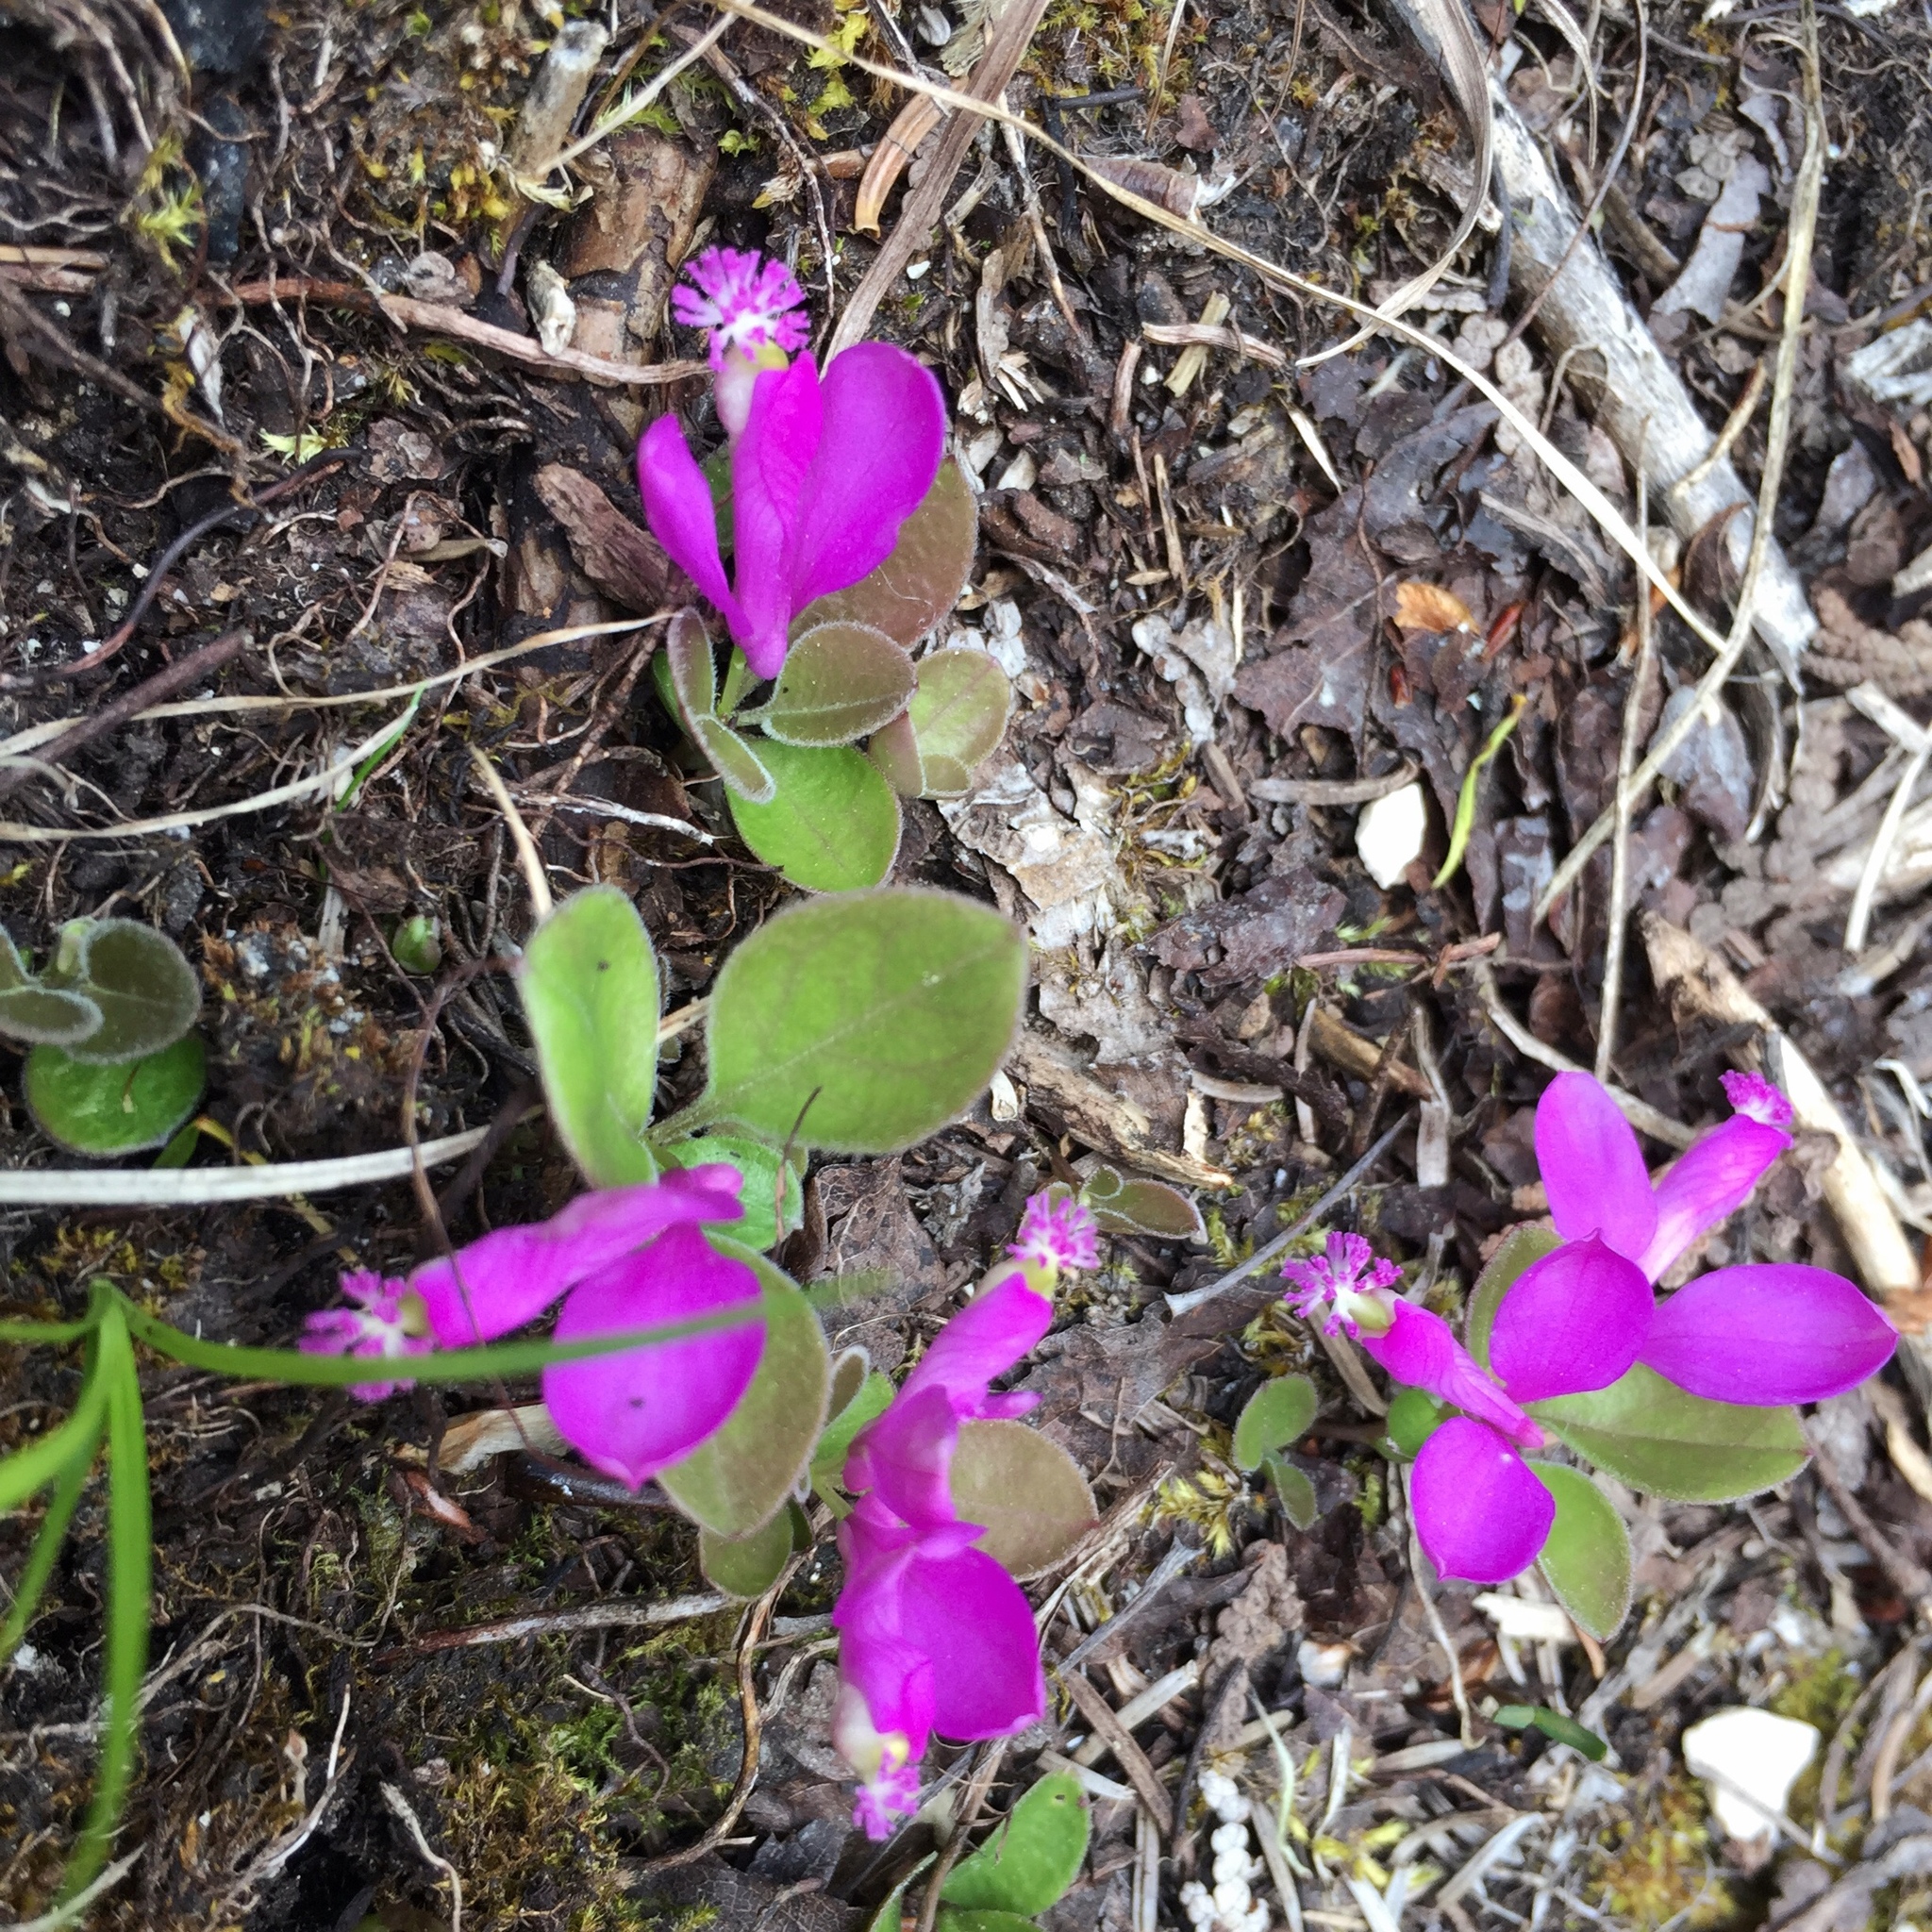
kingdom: Plantae
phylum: Tracheophyta
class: Magnoliopsida
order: Fabales
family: Polygalaceae
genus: Polygaloides
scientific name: Polygaloides paucifolia
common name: Bird-on-the-wing
